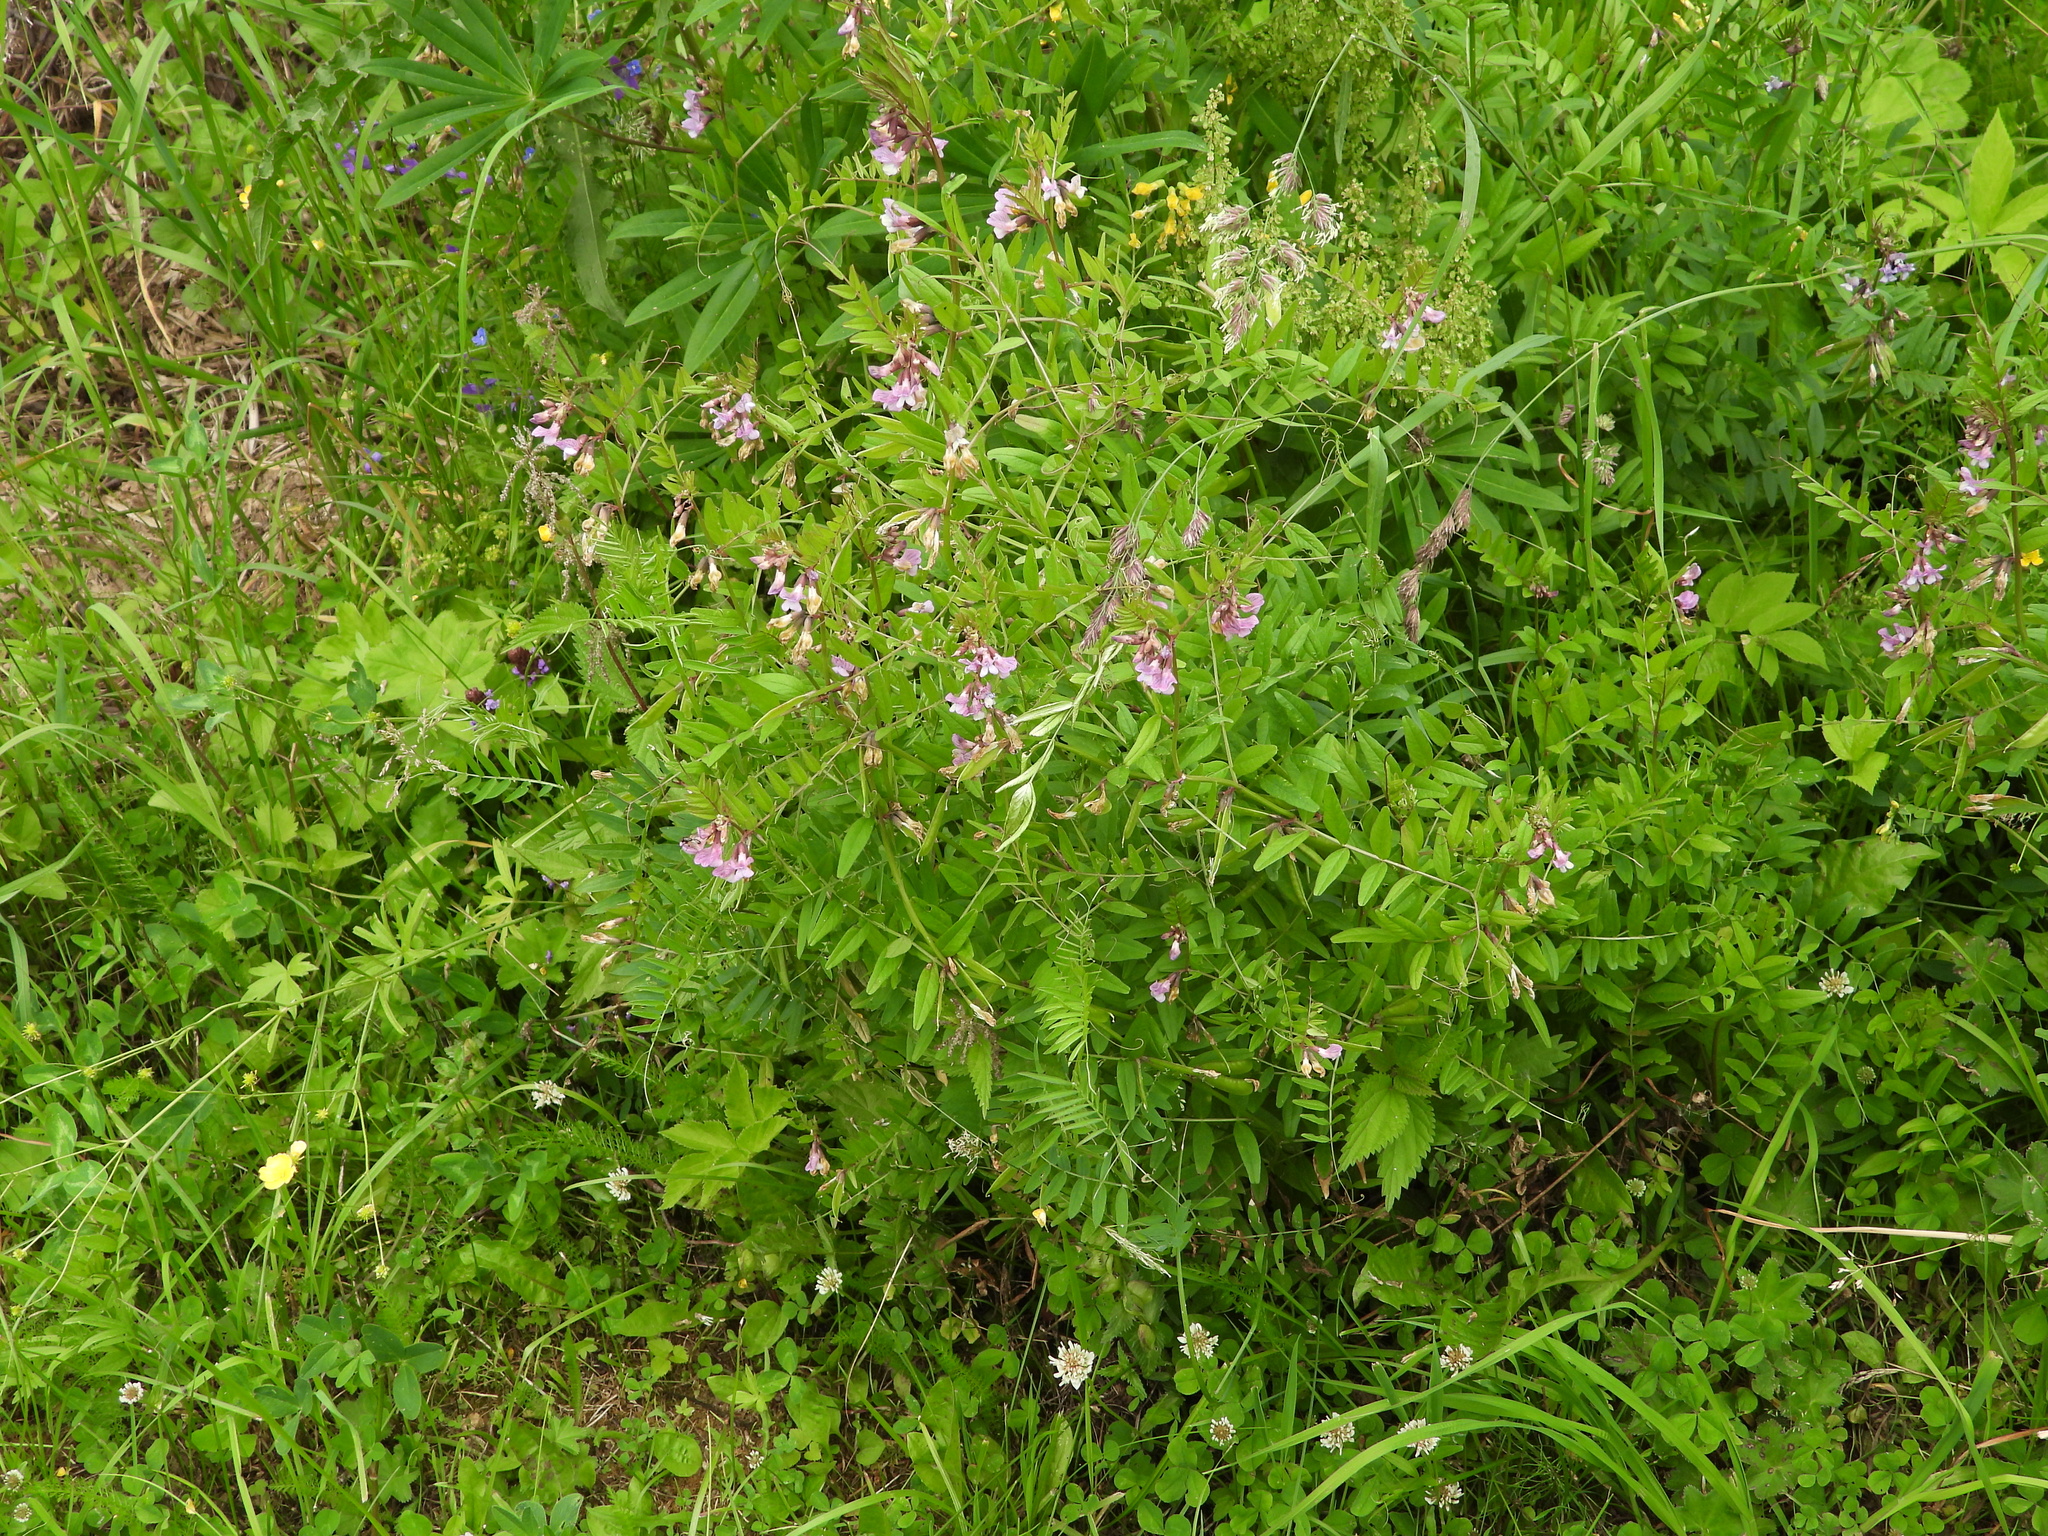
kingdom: Plantae
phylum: Tracheophyta
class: Magnoliopsida
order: Fabales
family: Fabaceae
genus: Vicia
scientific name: Vicia sepium
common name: Bush vetch
